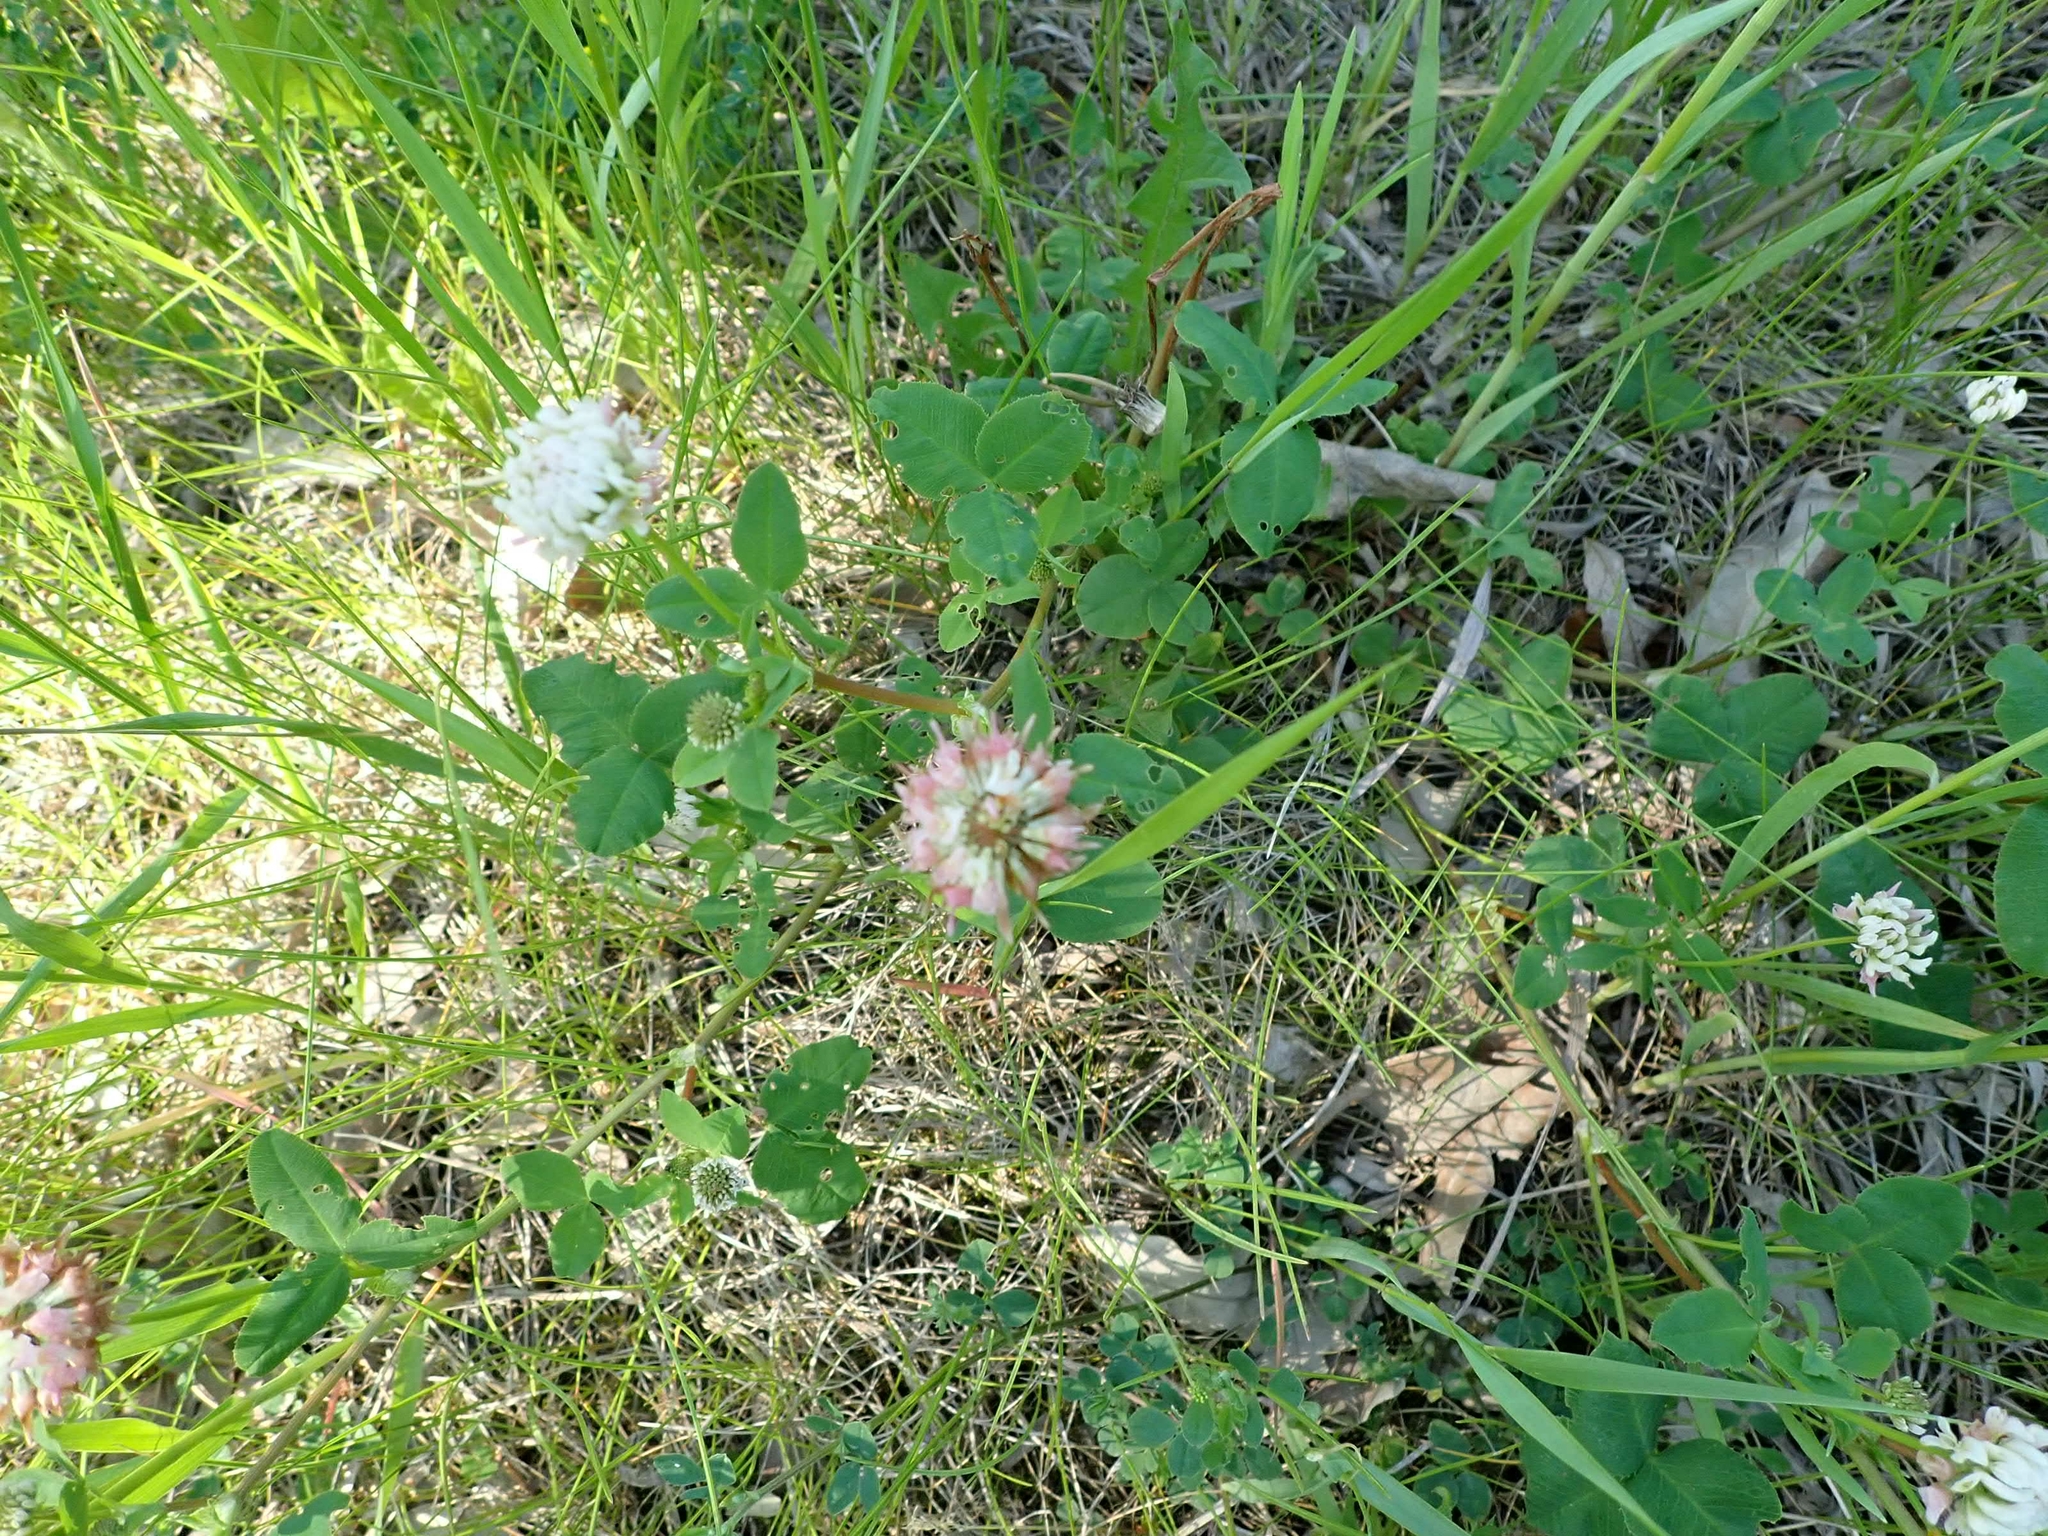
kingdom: Plantae
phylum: Tracheophyta
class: Magnoliopsida
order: Fabales
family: Fabaceae
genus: Trifolium
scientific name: Trifolium hybridum
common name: Alsike clover
